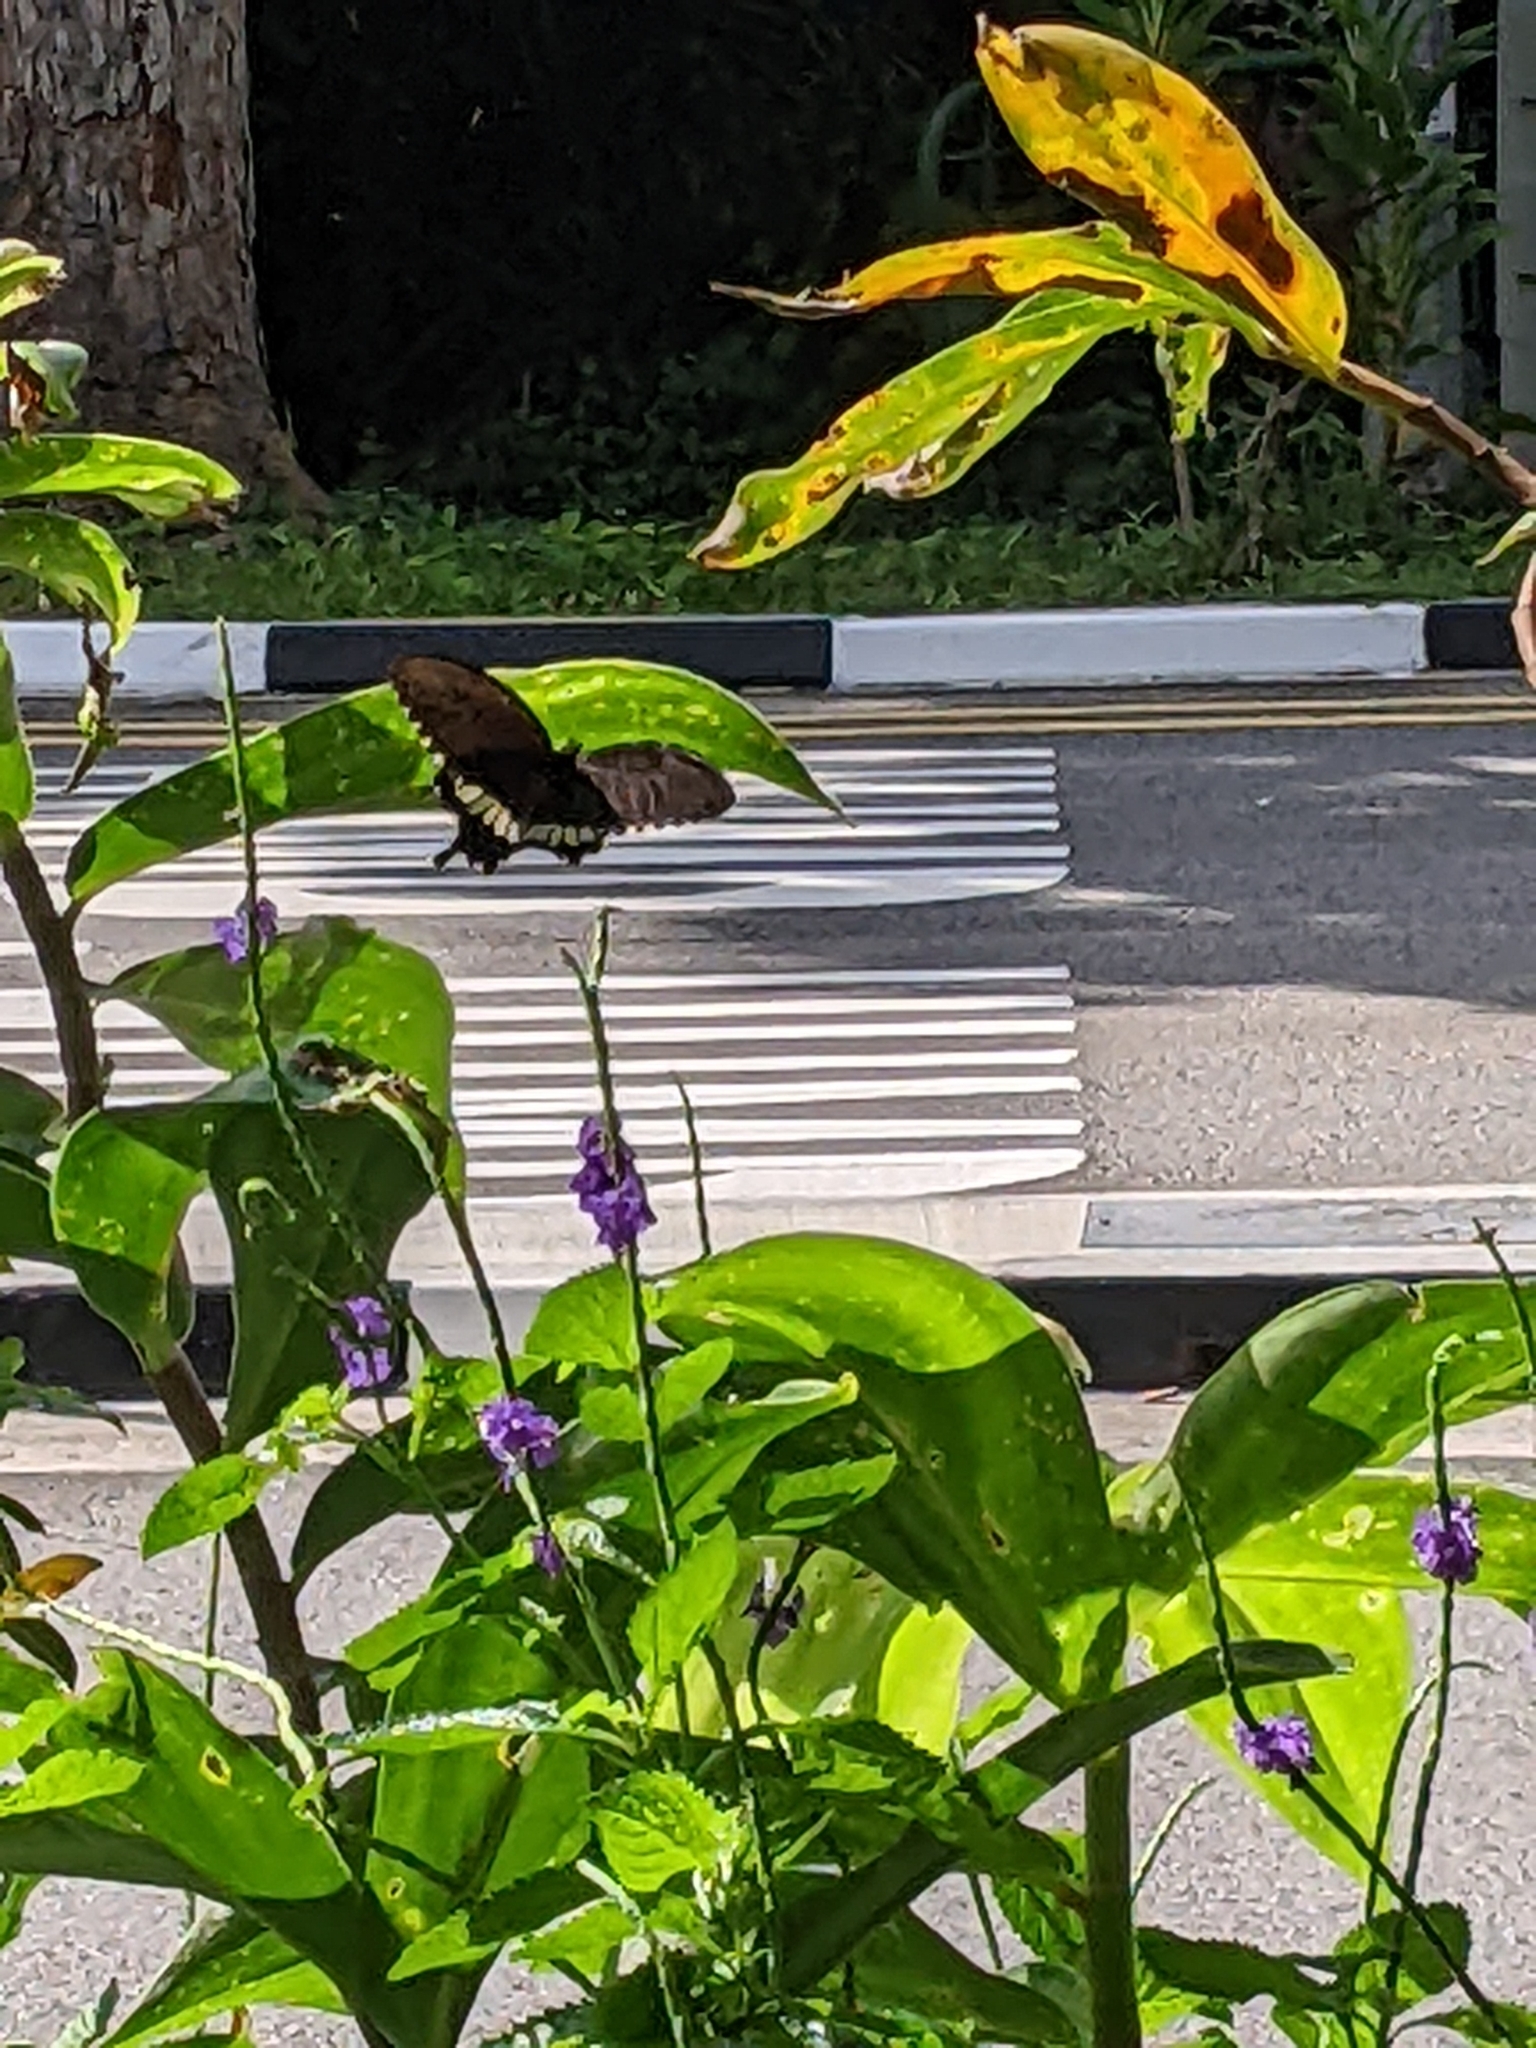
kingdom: Animalia
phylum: Arthropoda
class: Insecta
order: Lepidoptera
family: Papilionidae
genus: Papilio
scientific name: Papilio polytes
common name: Common mormon
